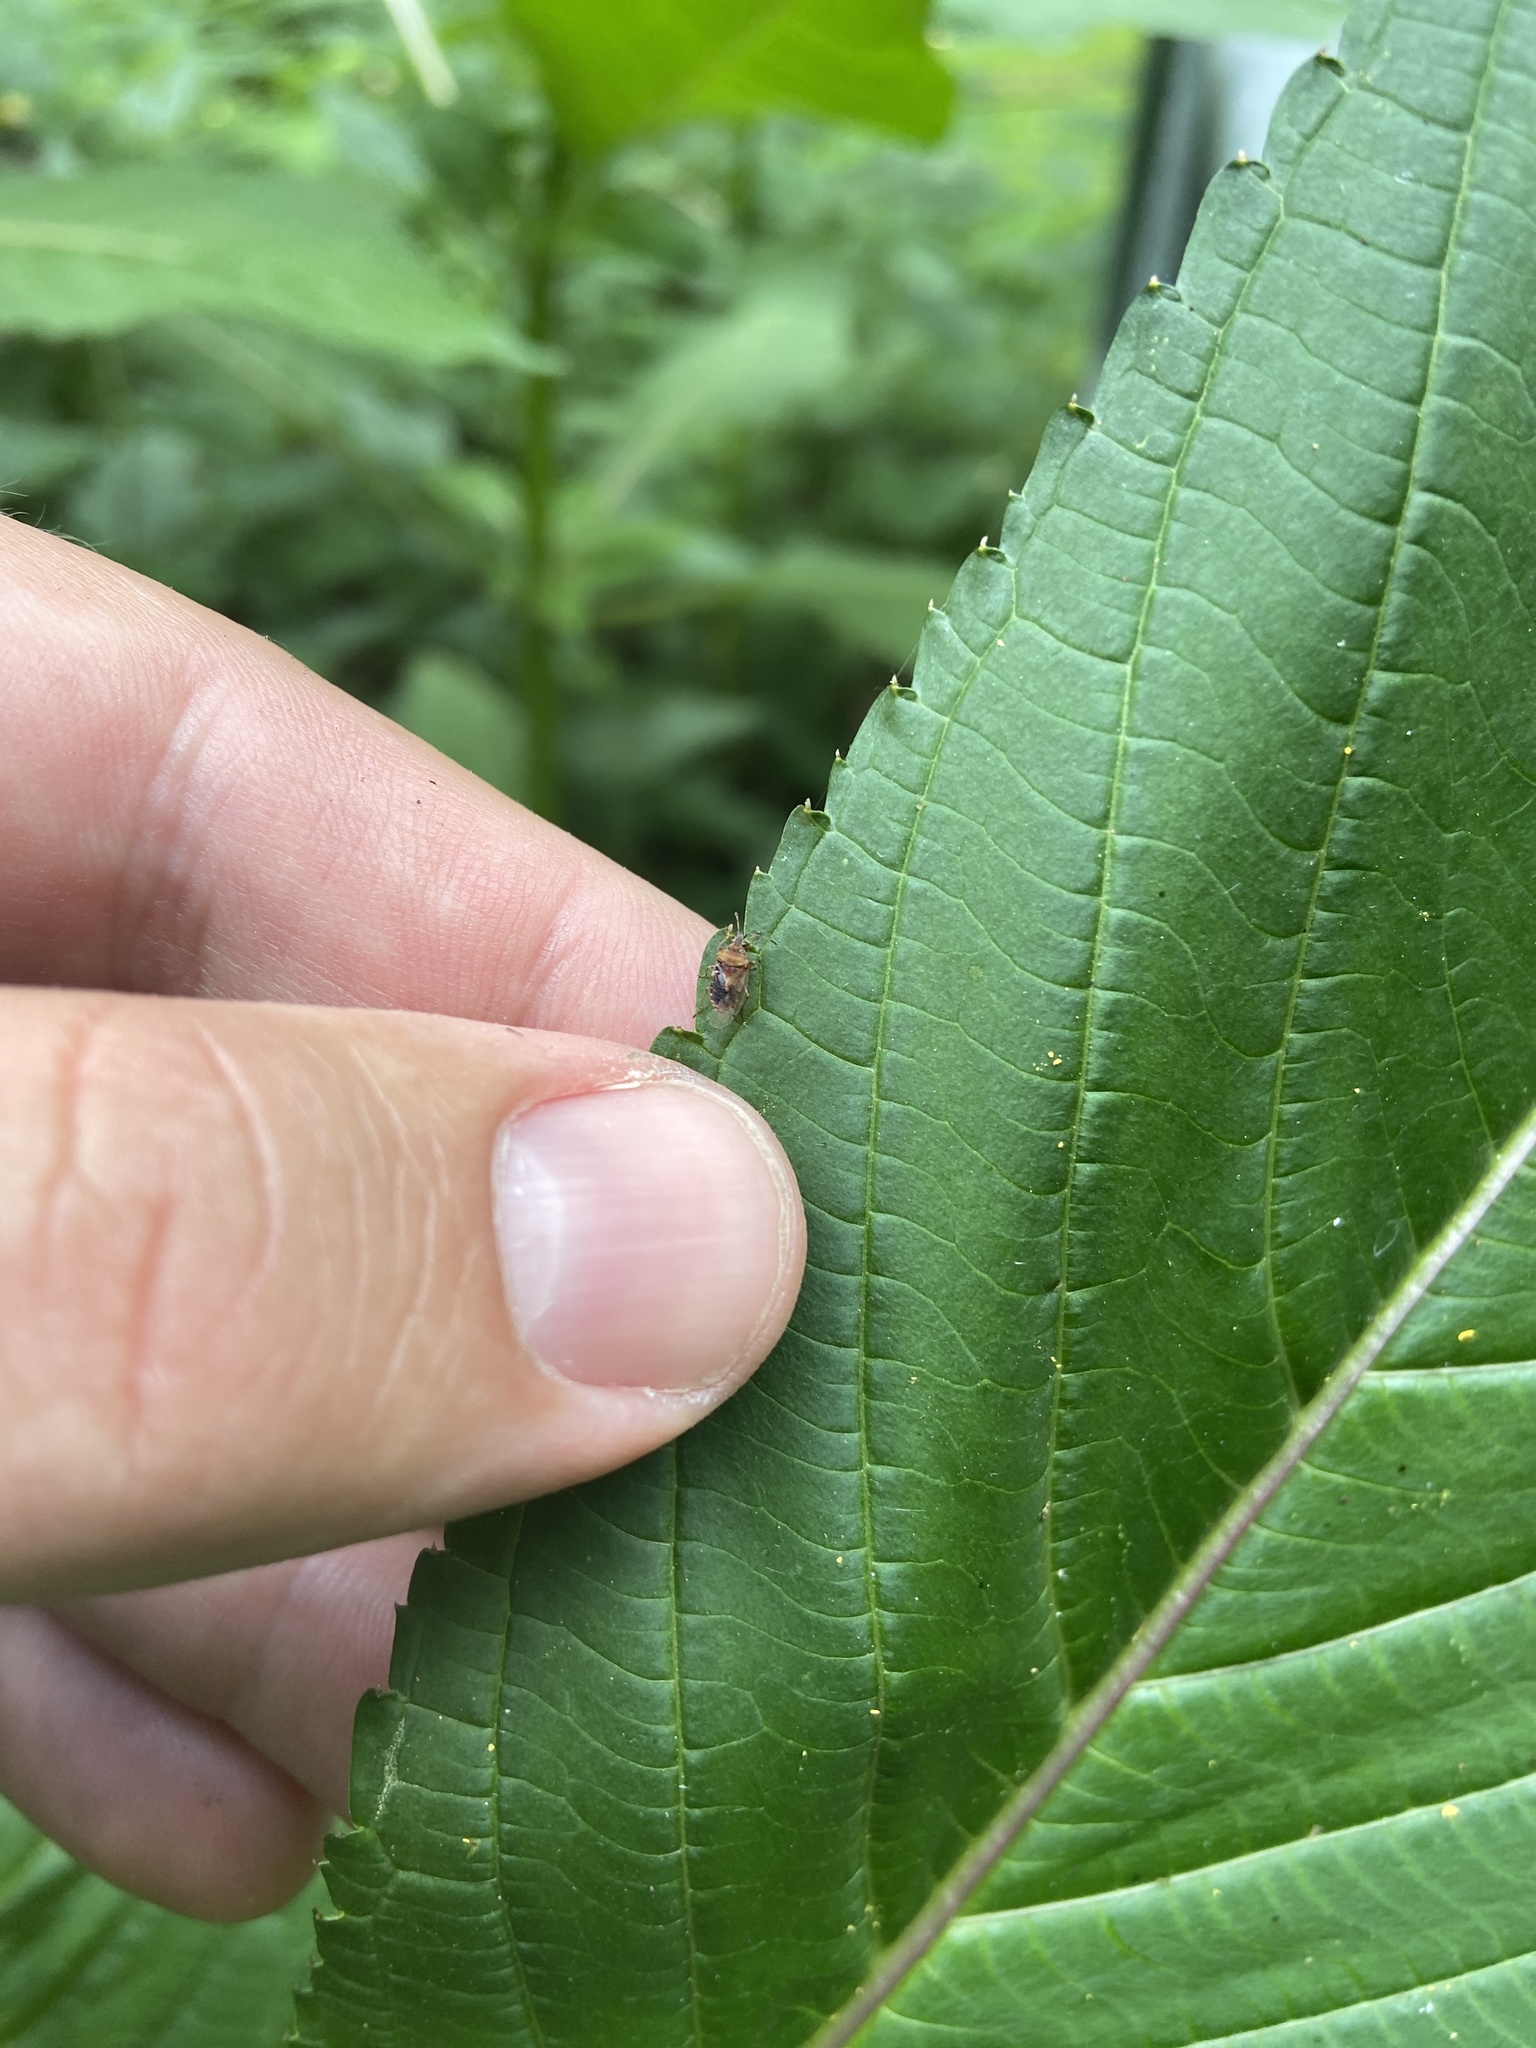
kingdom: Animalia
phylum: Arthropoda
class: Insecta
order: Hemiptera
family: Lygaeidae
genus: Kleidocerys
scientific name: Kleidocerys resedae
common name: Birch catkin bug
